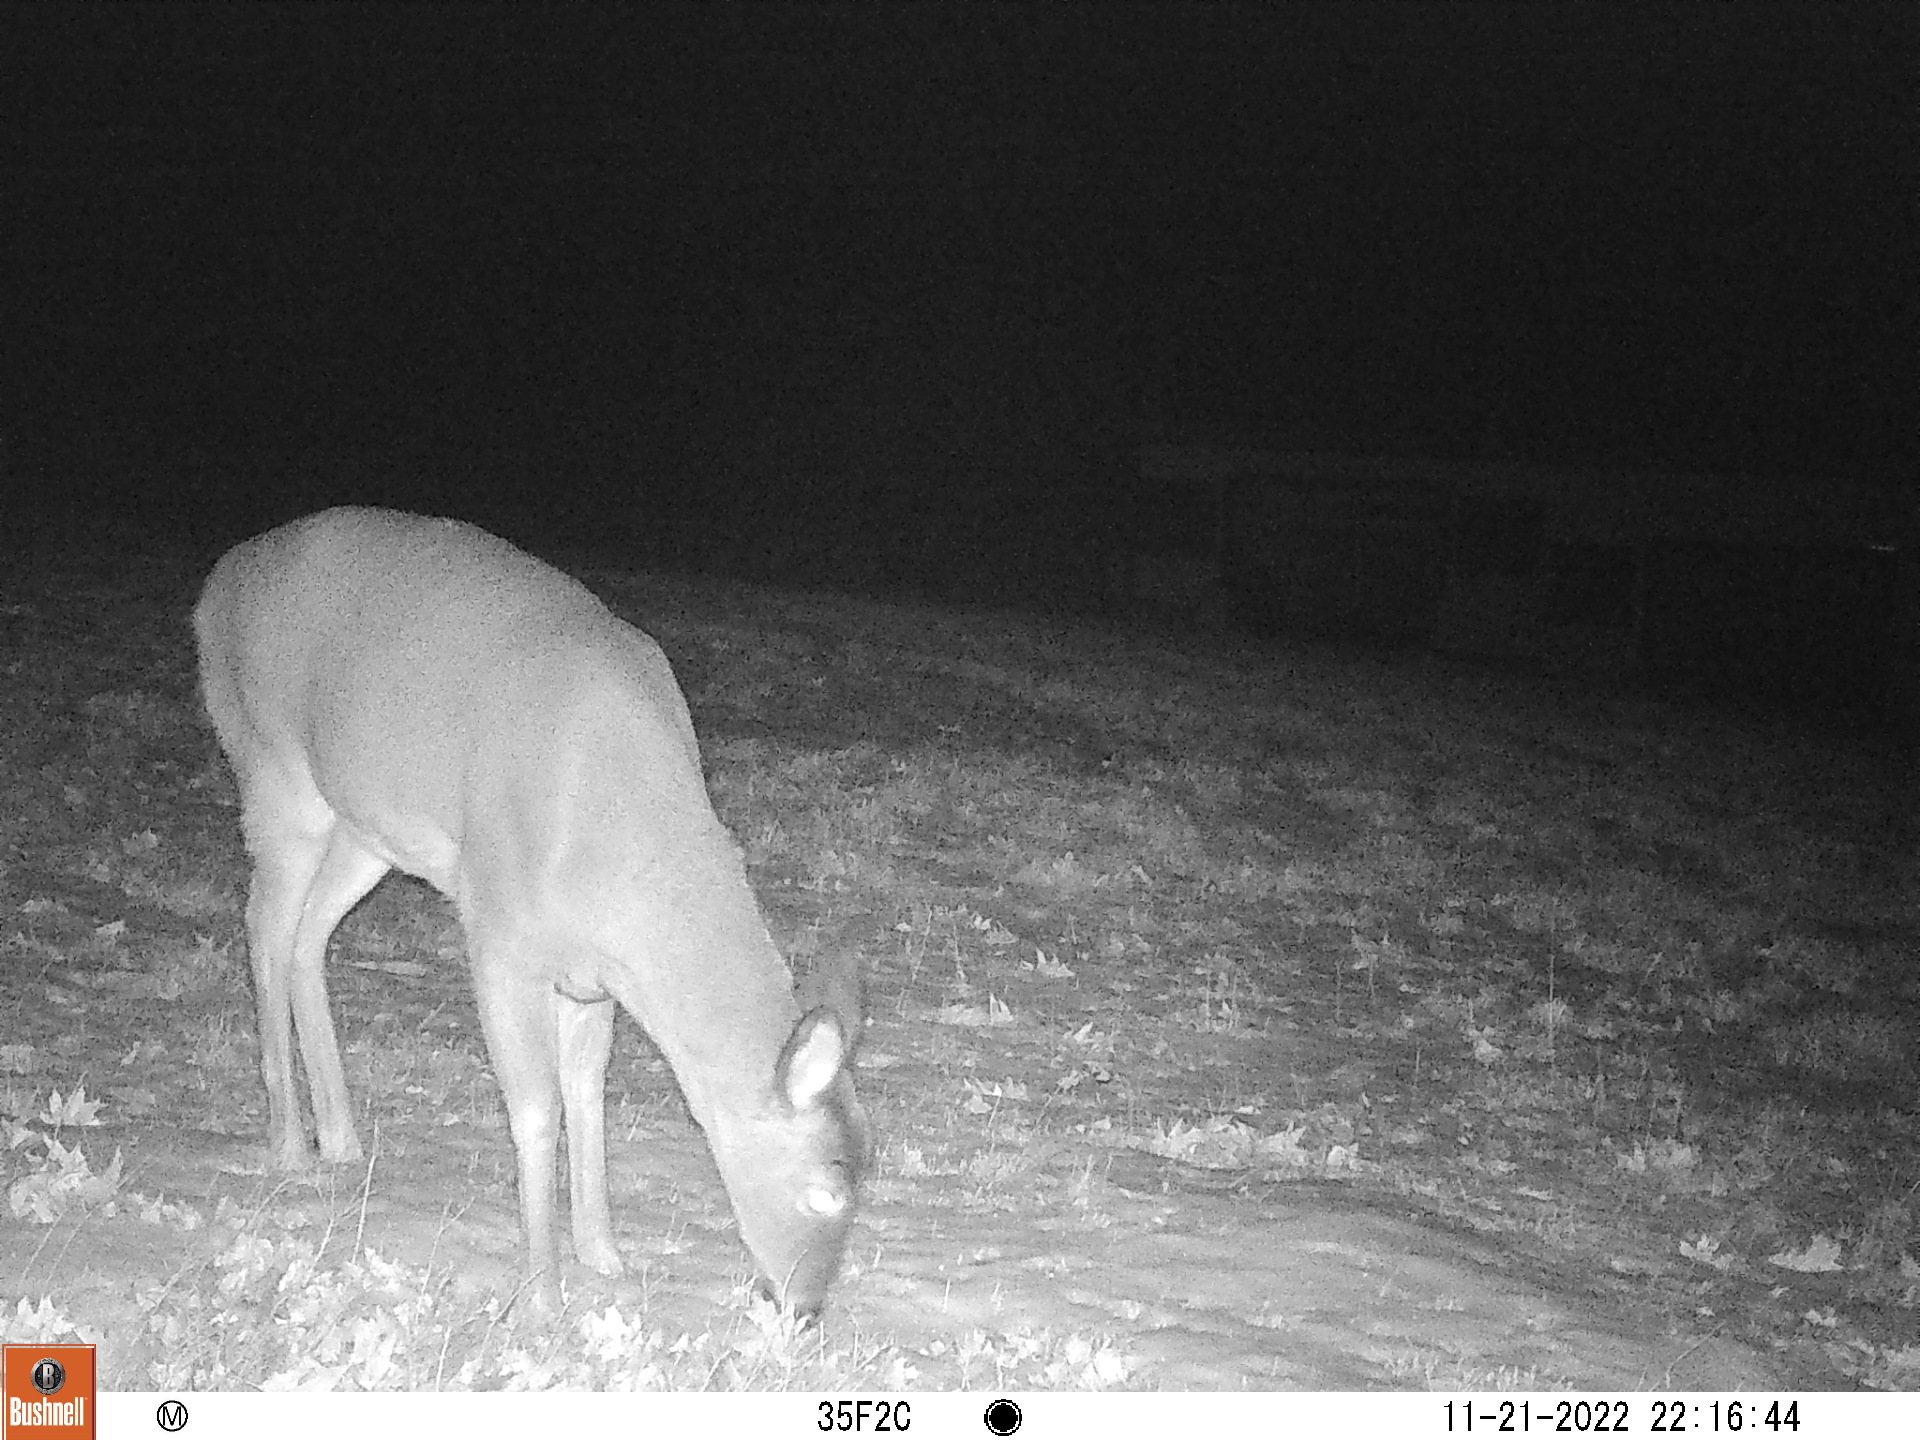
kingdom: Animalia
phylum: Chordata
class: Mammalia
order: Artiodactyla
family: Cervidae
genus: Odocoileus
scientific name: Odocoileus virginianus
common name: White-tailed deer
